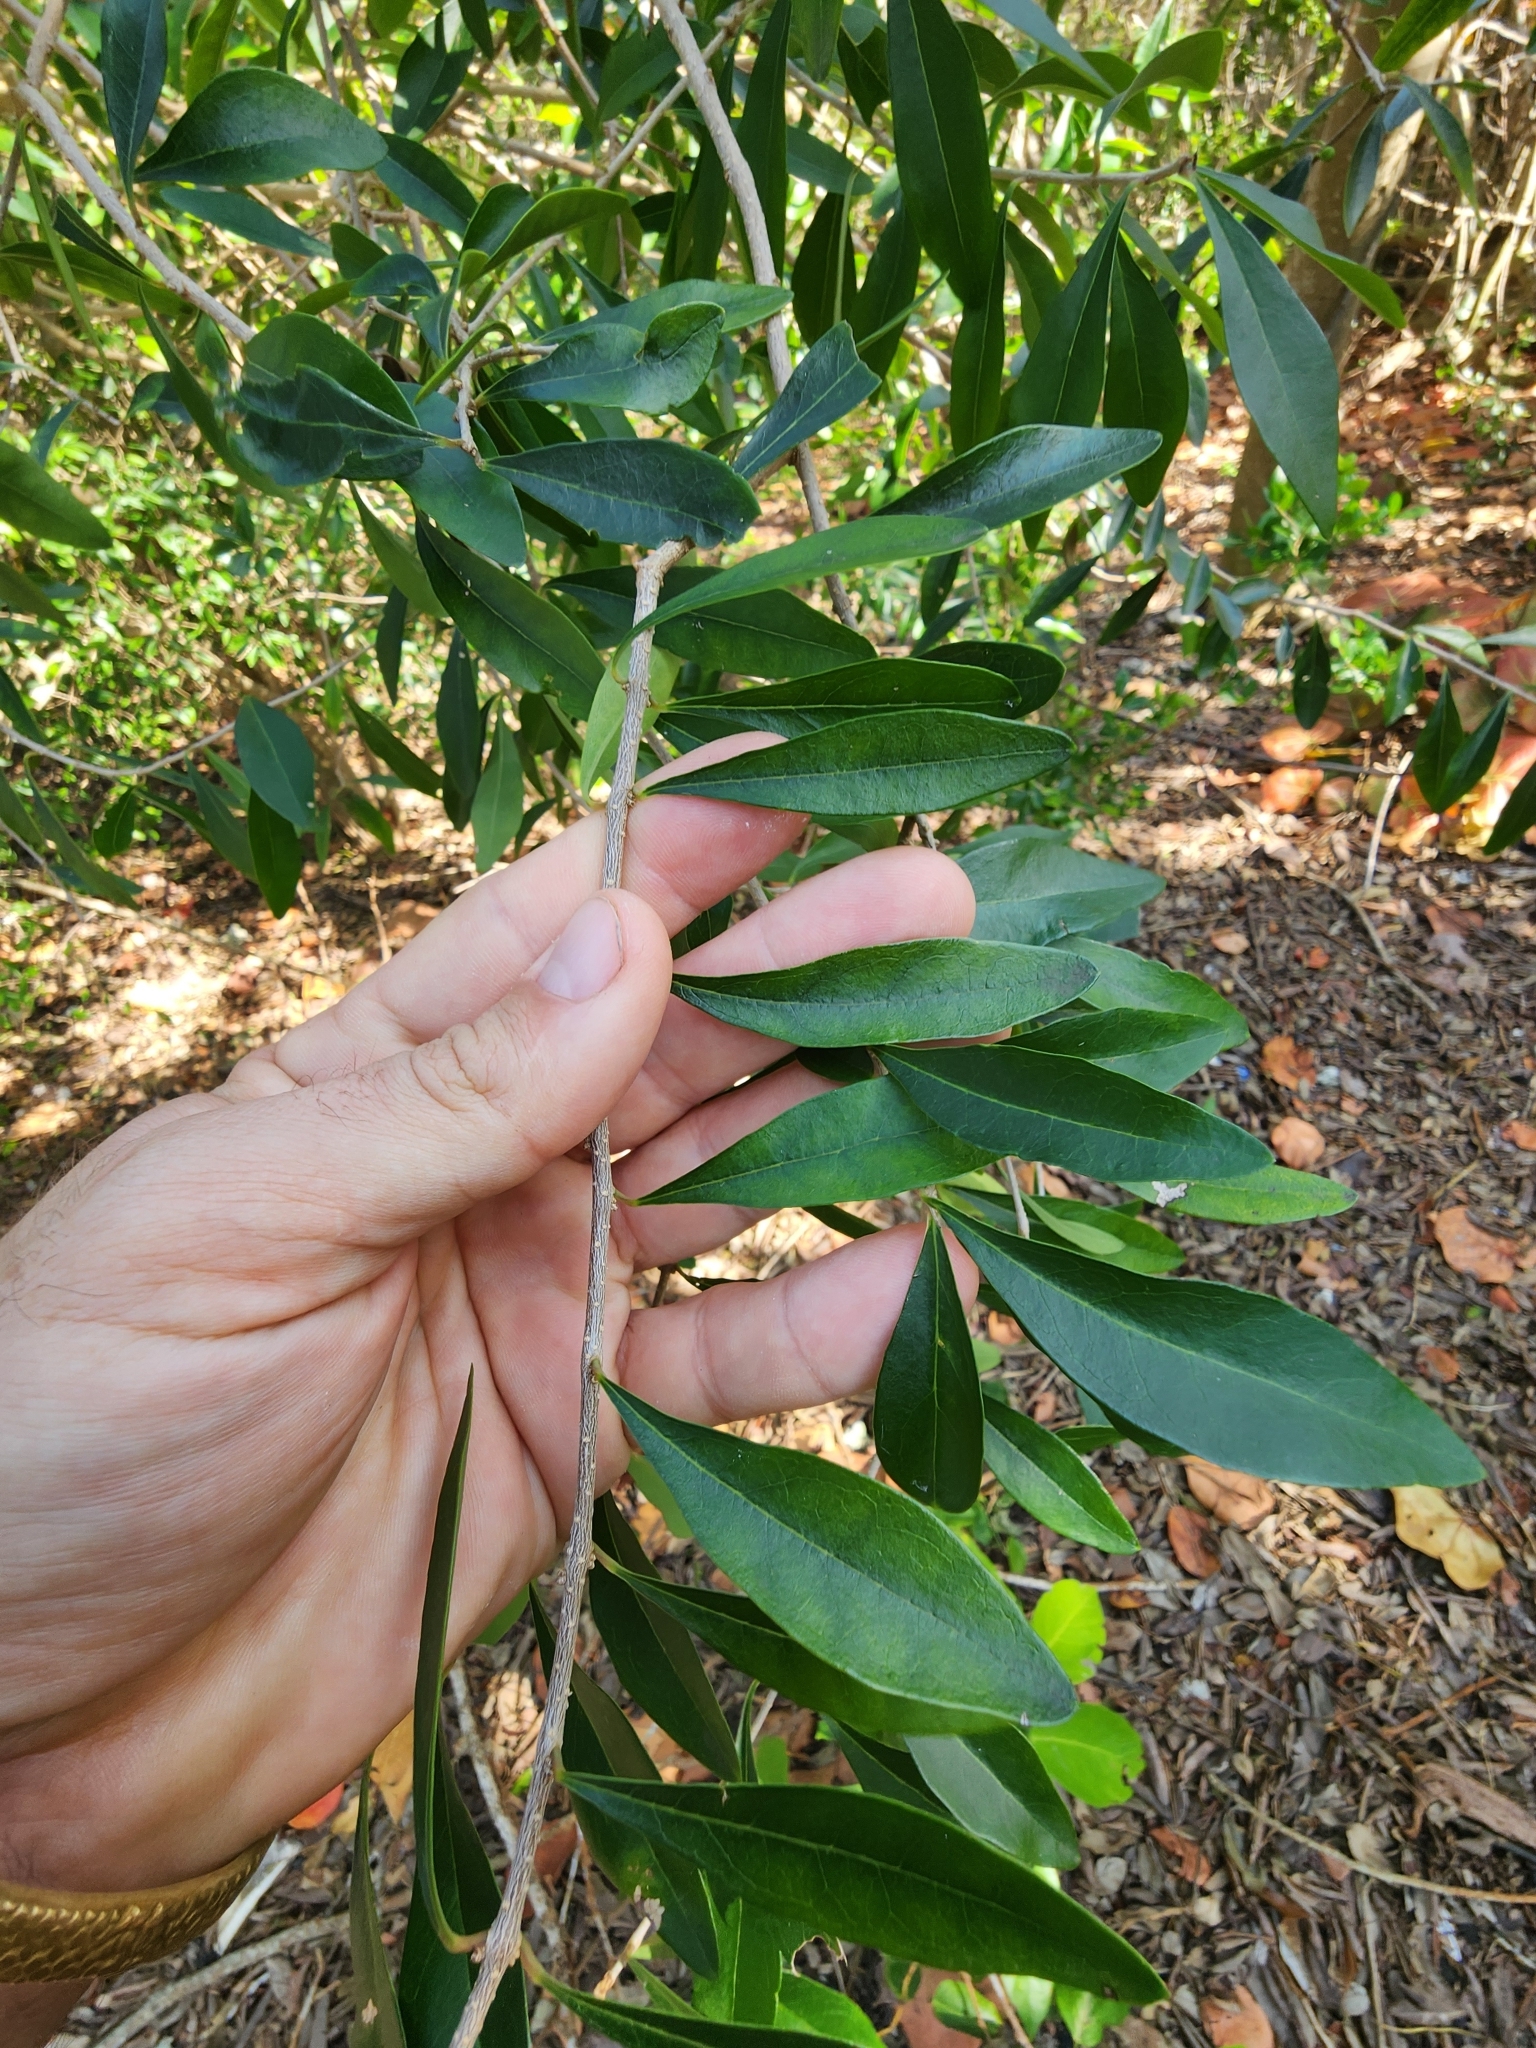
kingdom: Plantae
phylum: Tracheophyta
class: Magnoliopsida
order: Lamiales
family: Oleaceae
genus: Forestiera
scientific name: Forestiera segregata
